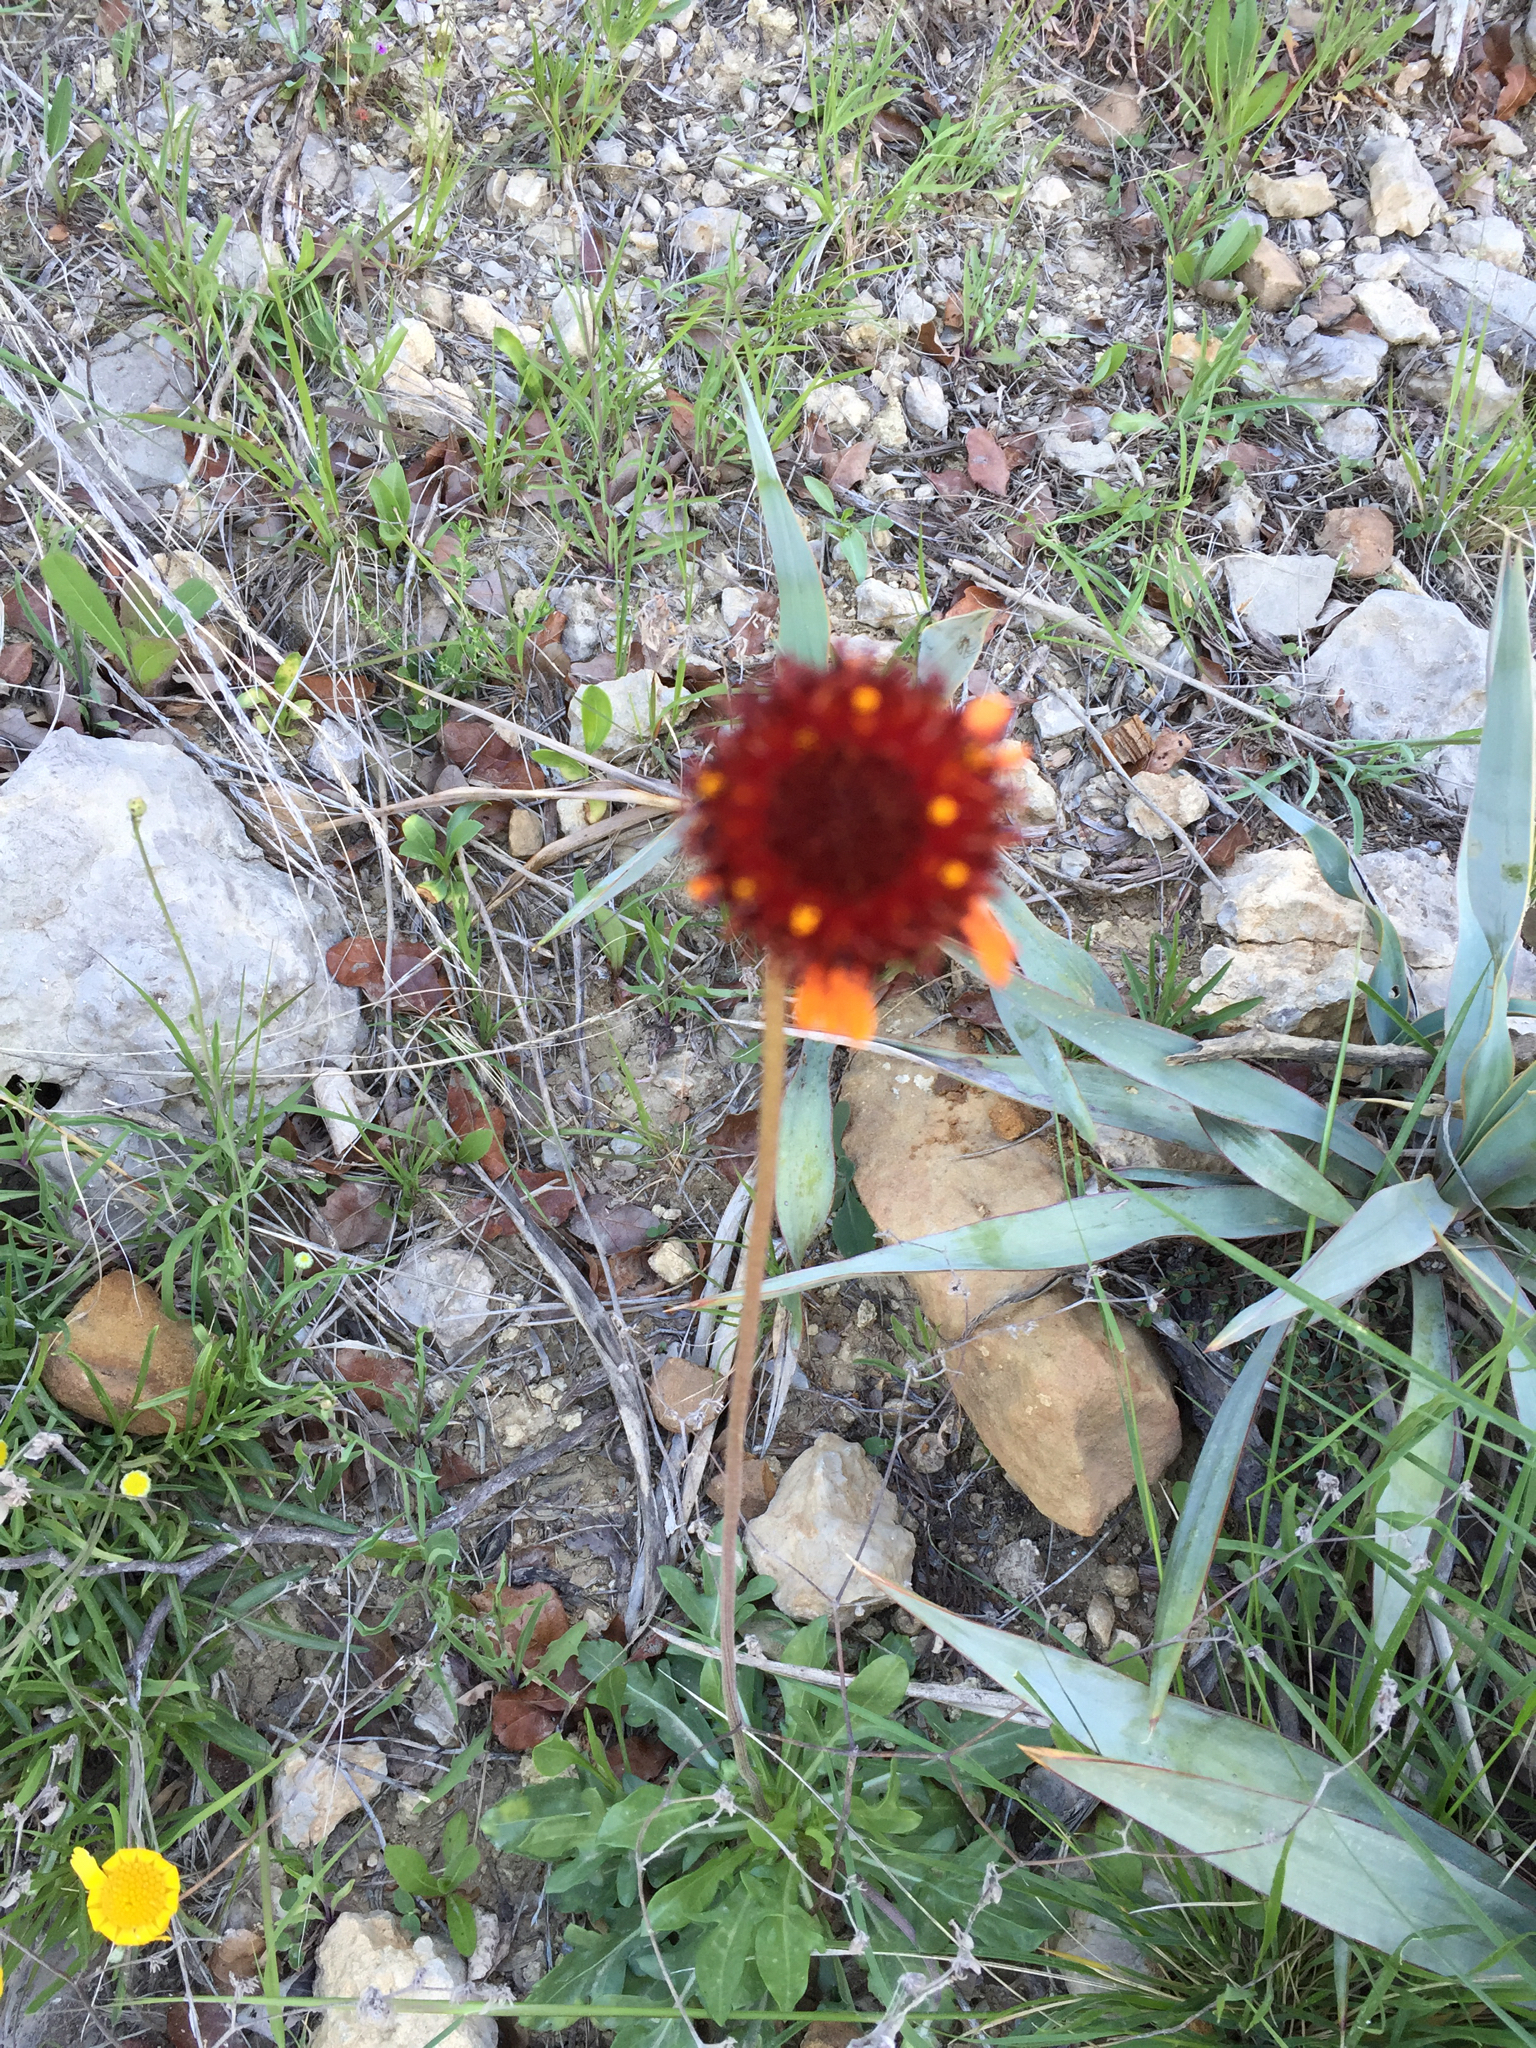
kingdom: Plantae
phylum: Tracheophyta
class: Magnoliopsida
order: Asterales
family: Asteraceae
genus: Gaillardia
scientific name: Gaillardia suavis
